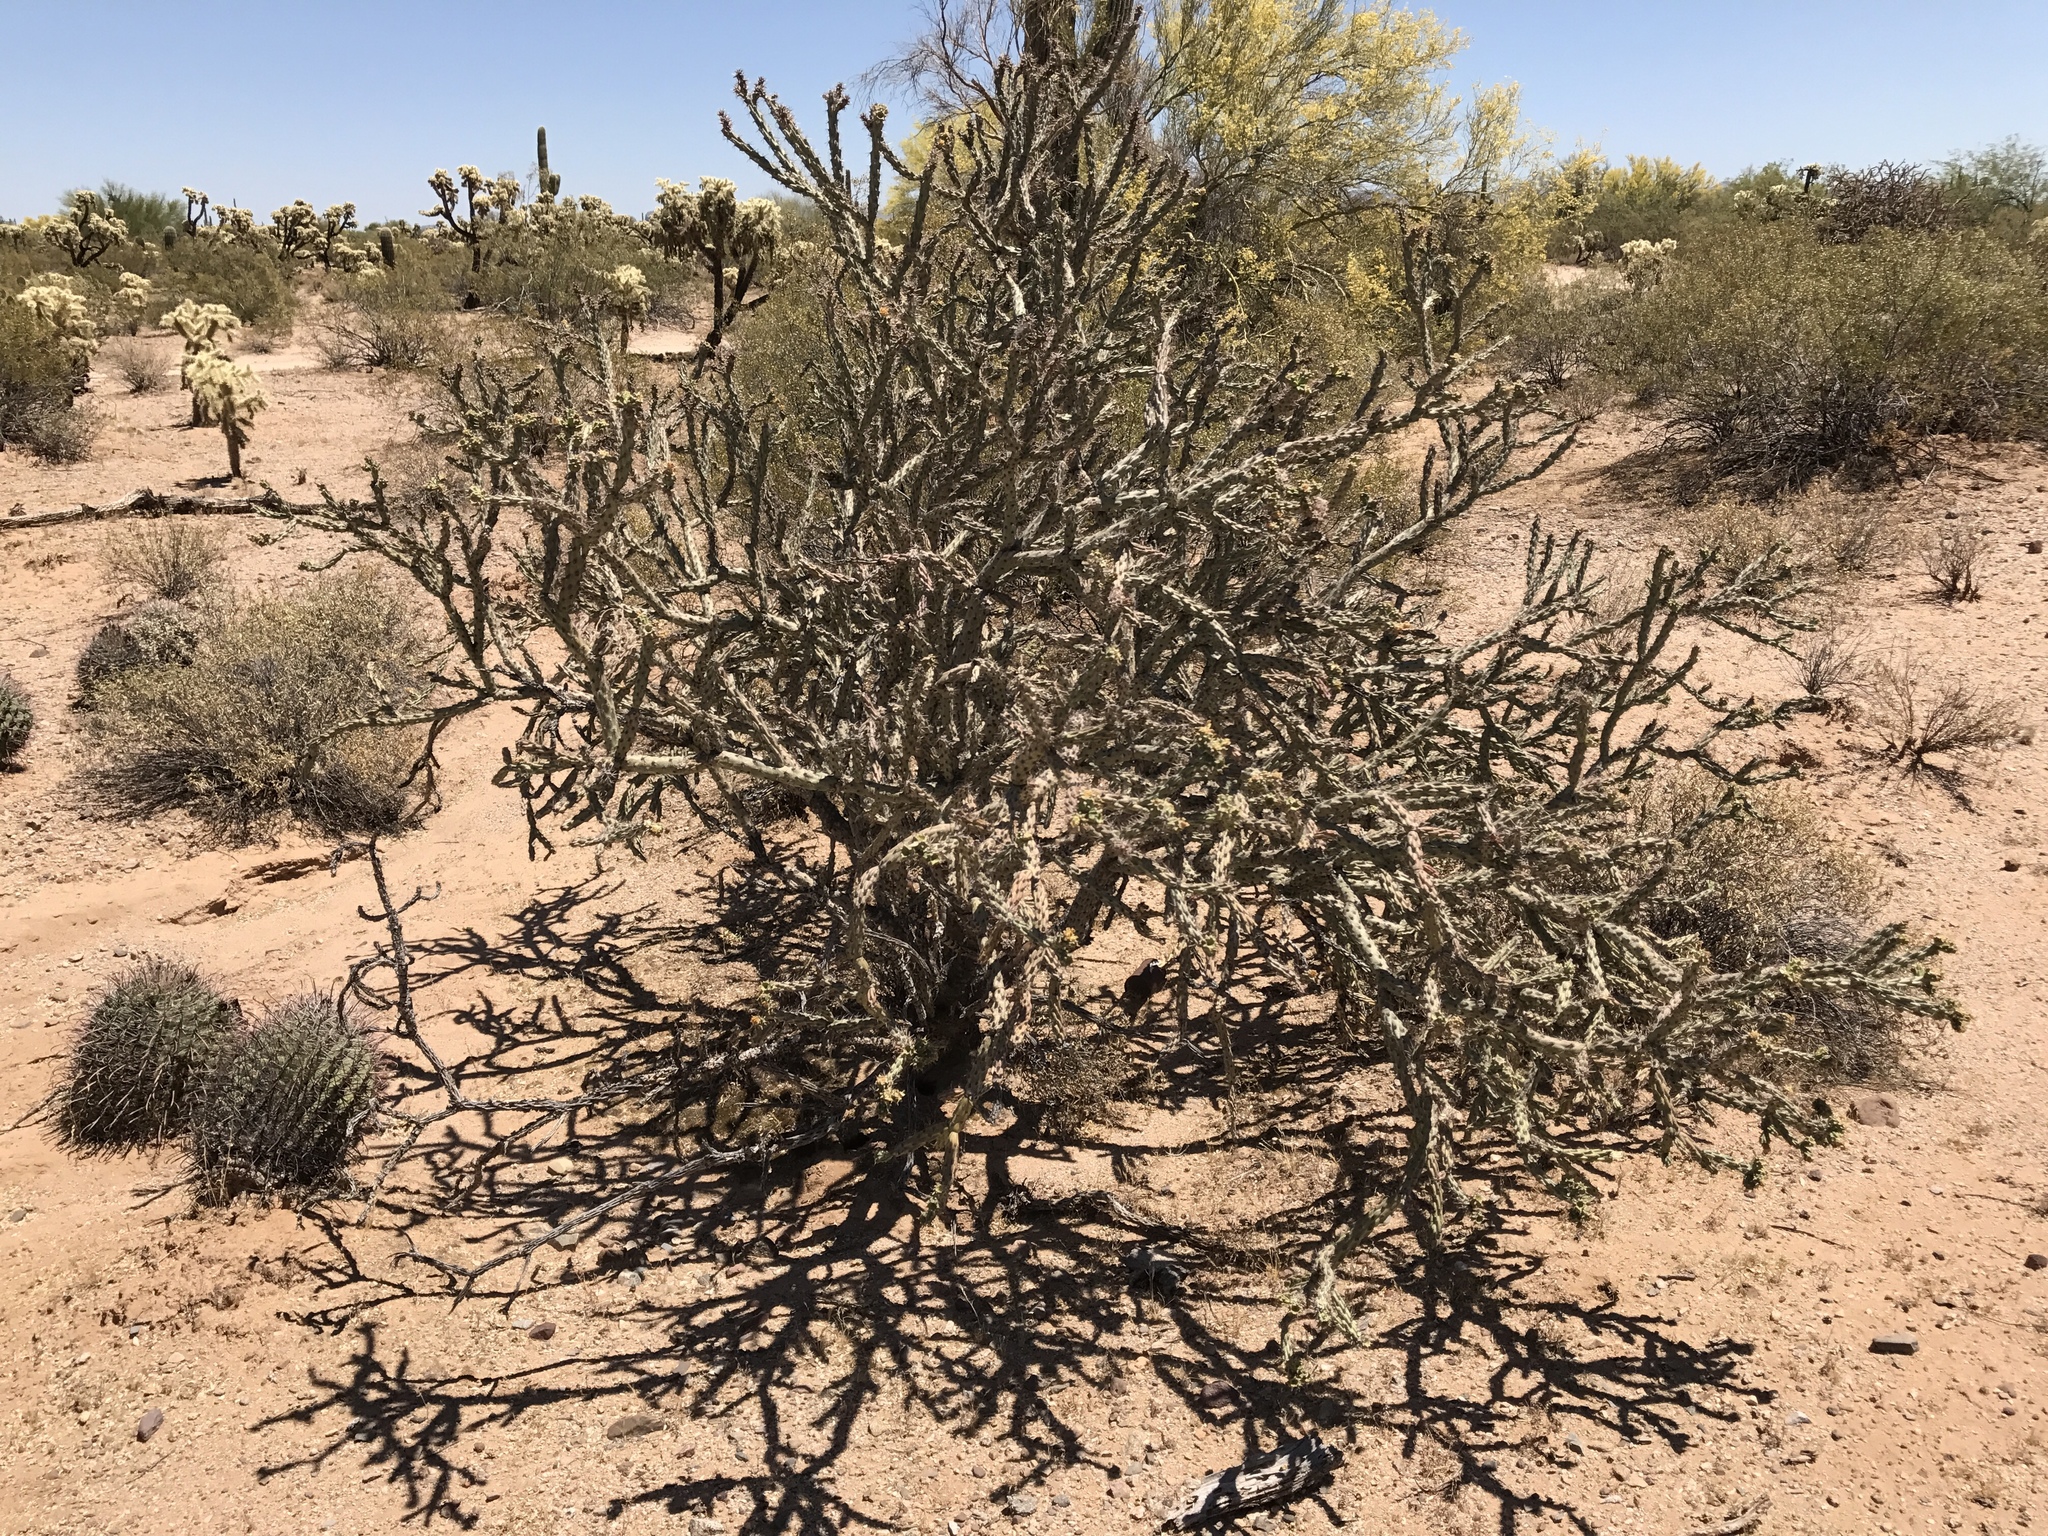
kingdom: Plantae
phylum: Tracheophyta
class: Magnoliopsida
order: Caryophyllales
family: Cactaceae
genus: Cylindropuntia
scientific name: Cylindropuntia thurberi
